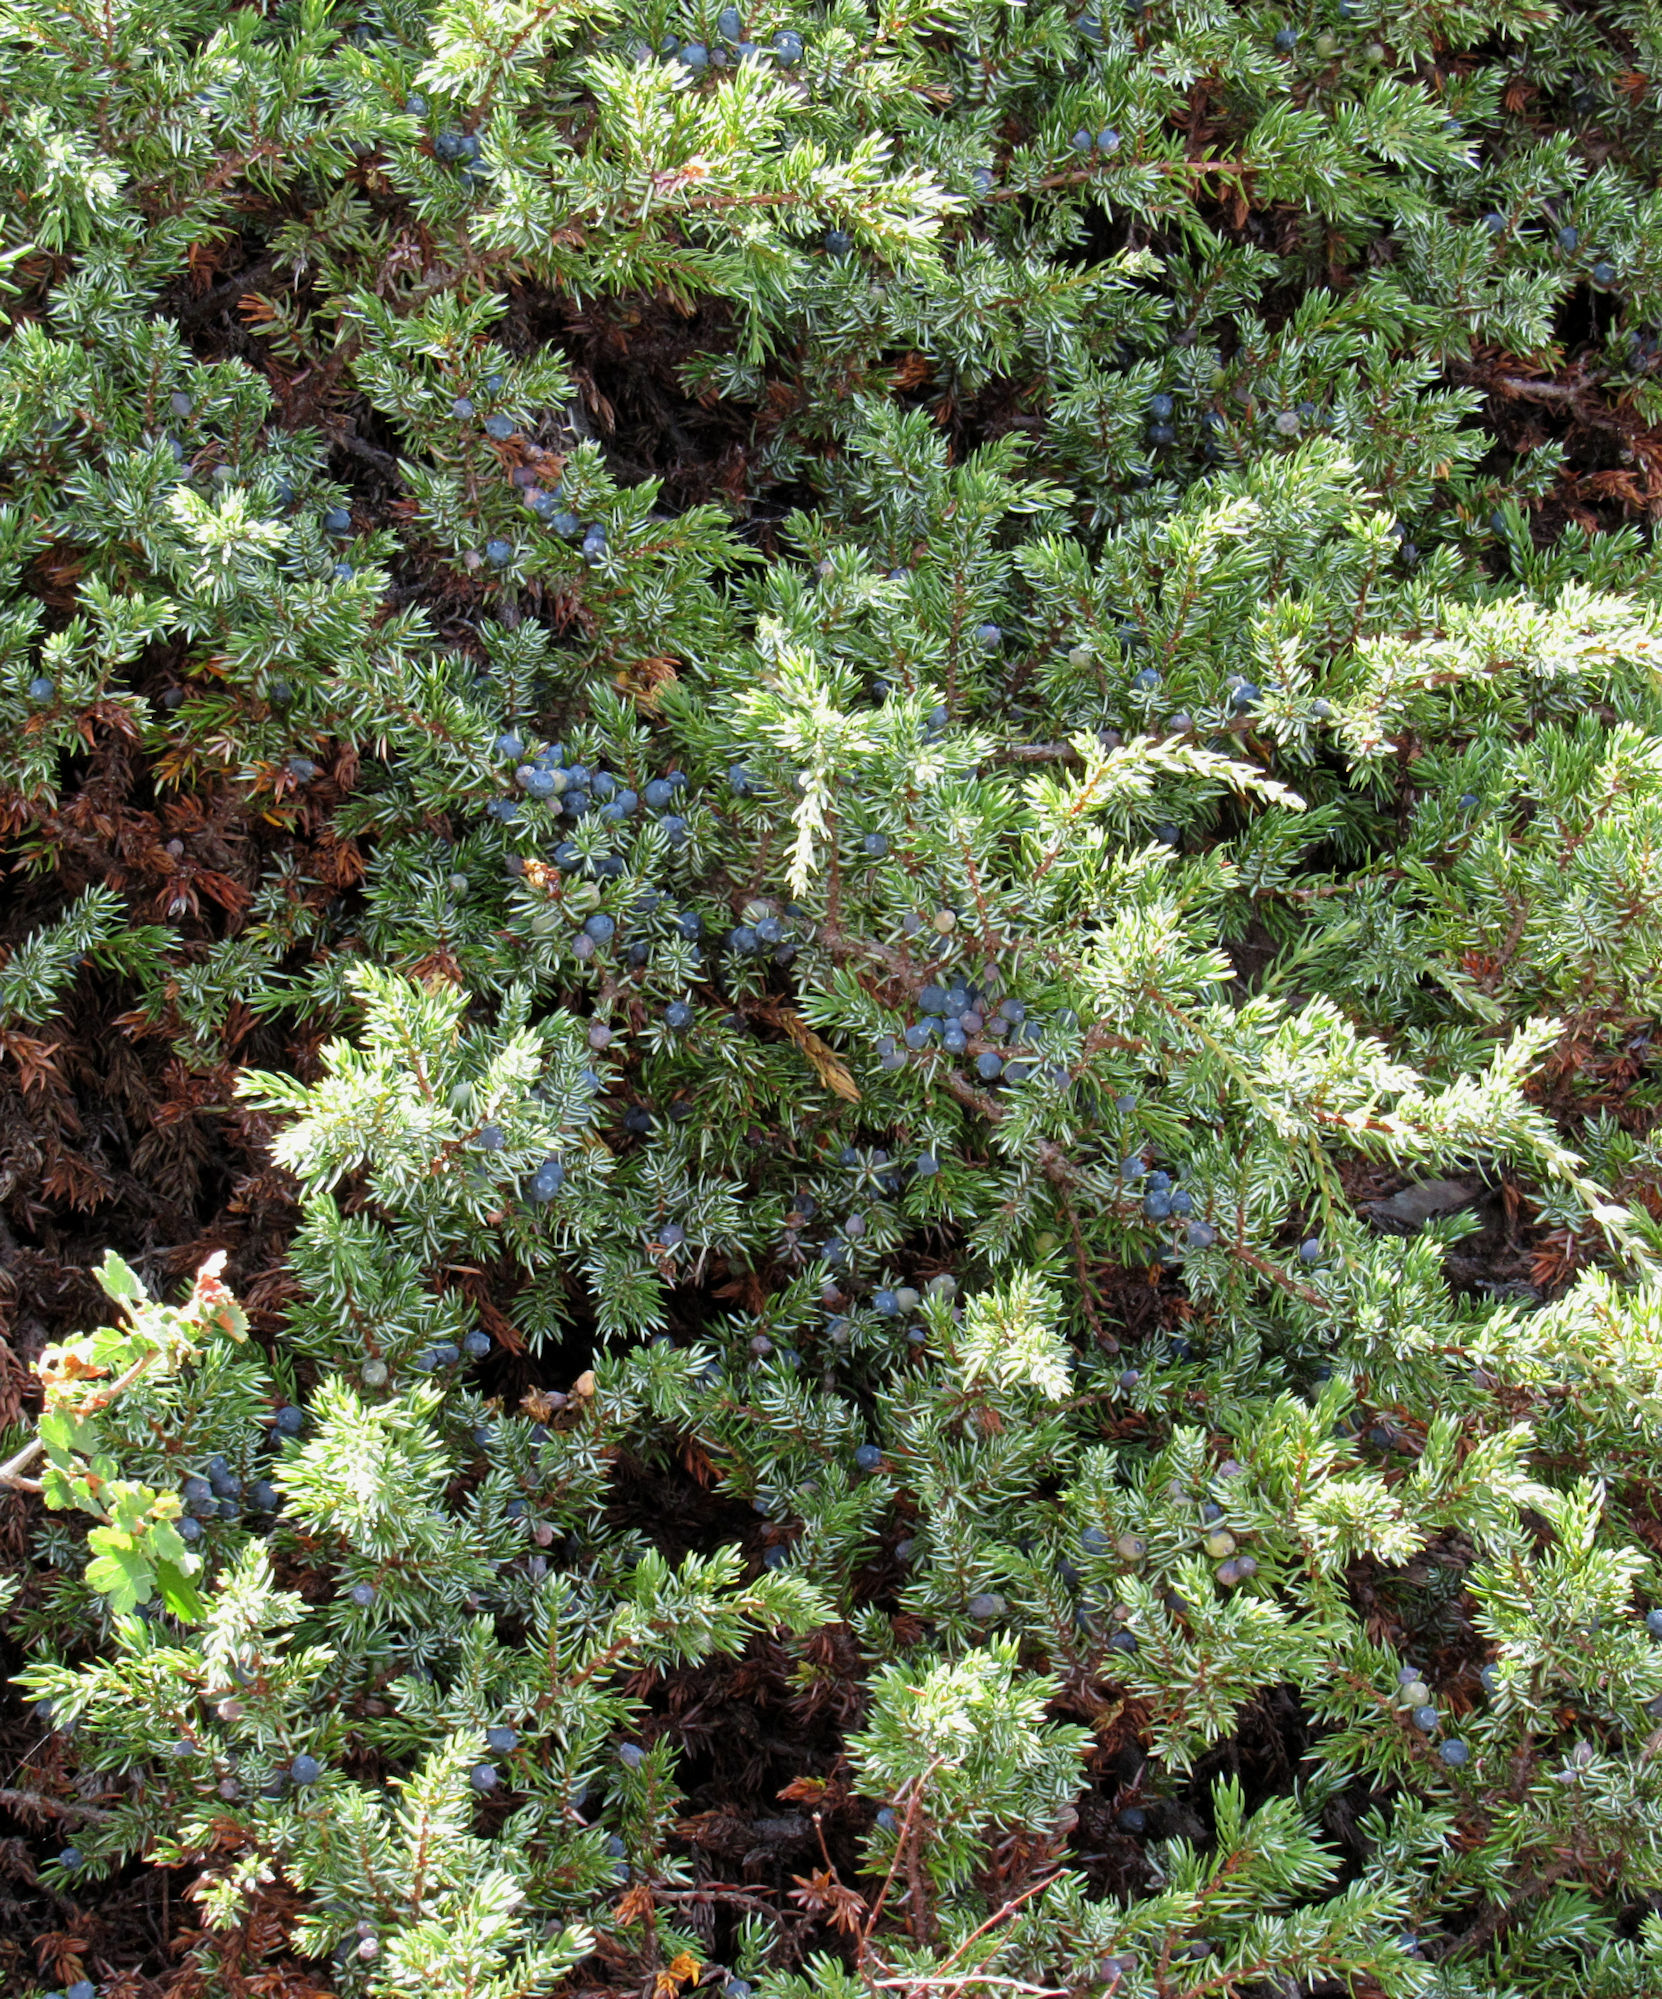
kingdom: Plantae
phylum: Tracheophyta
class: Pinopsida
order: Pinales
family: Cupressaceae
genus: Juniperus
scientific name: Juniperus communis
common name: Common juniper
